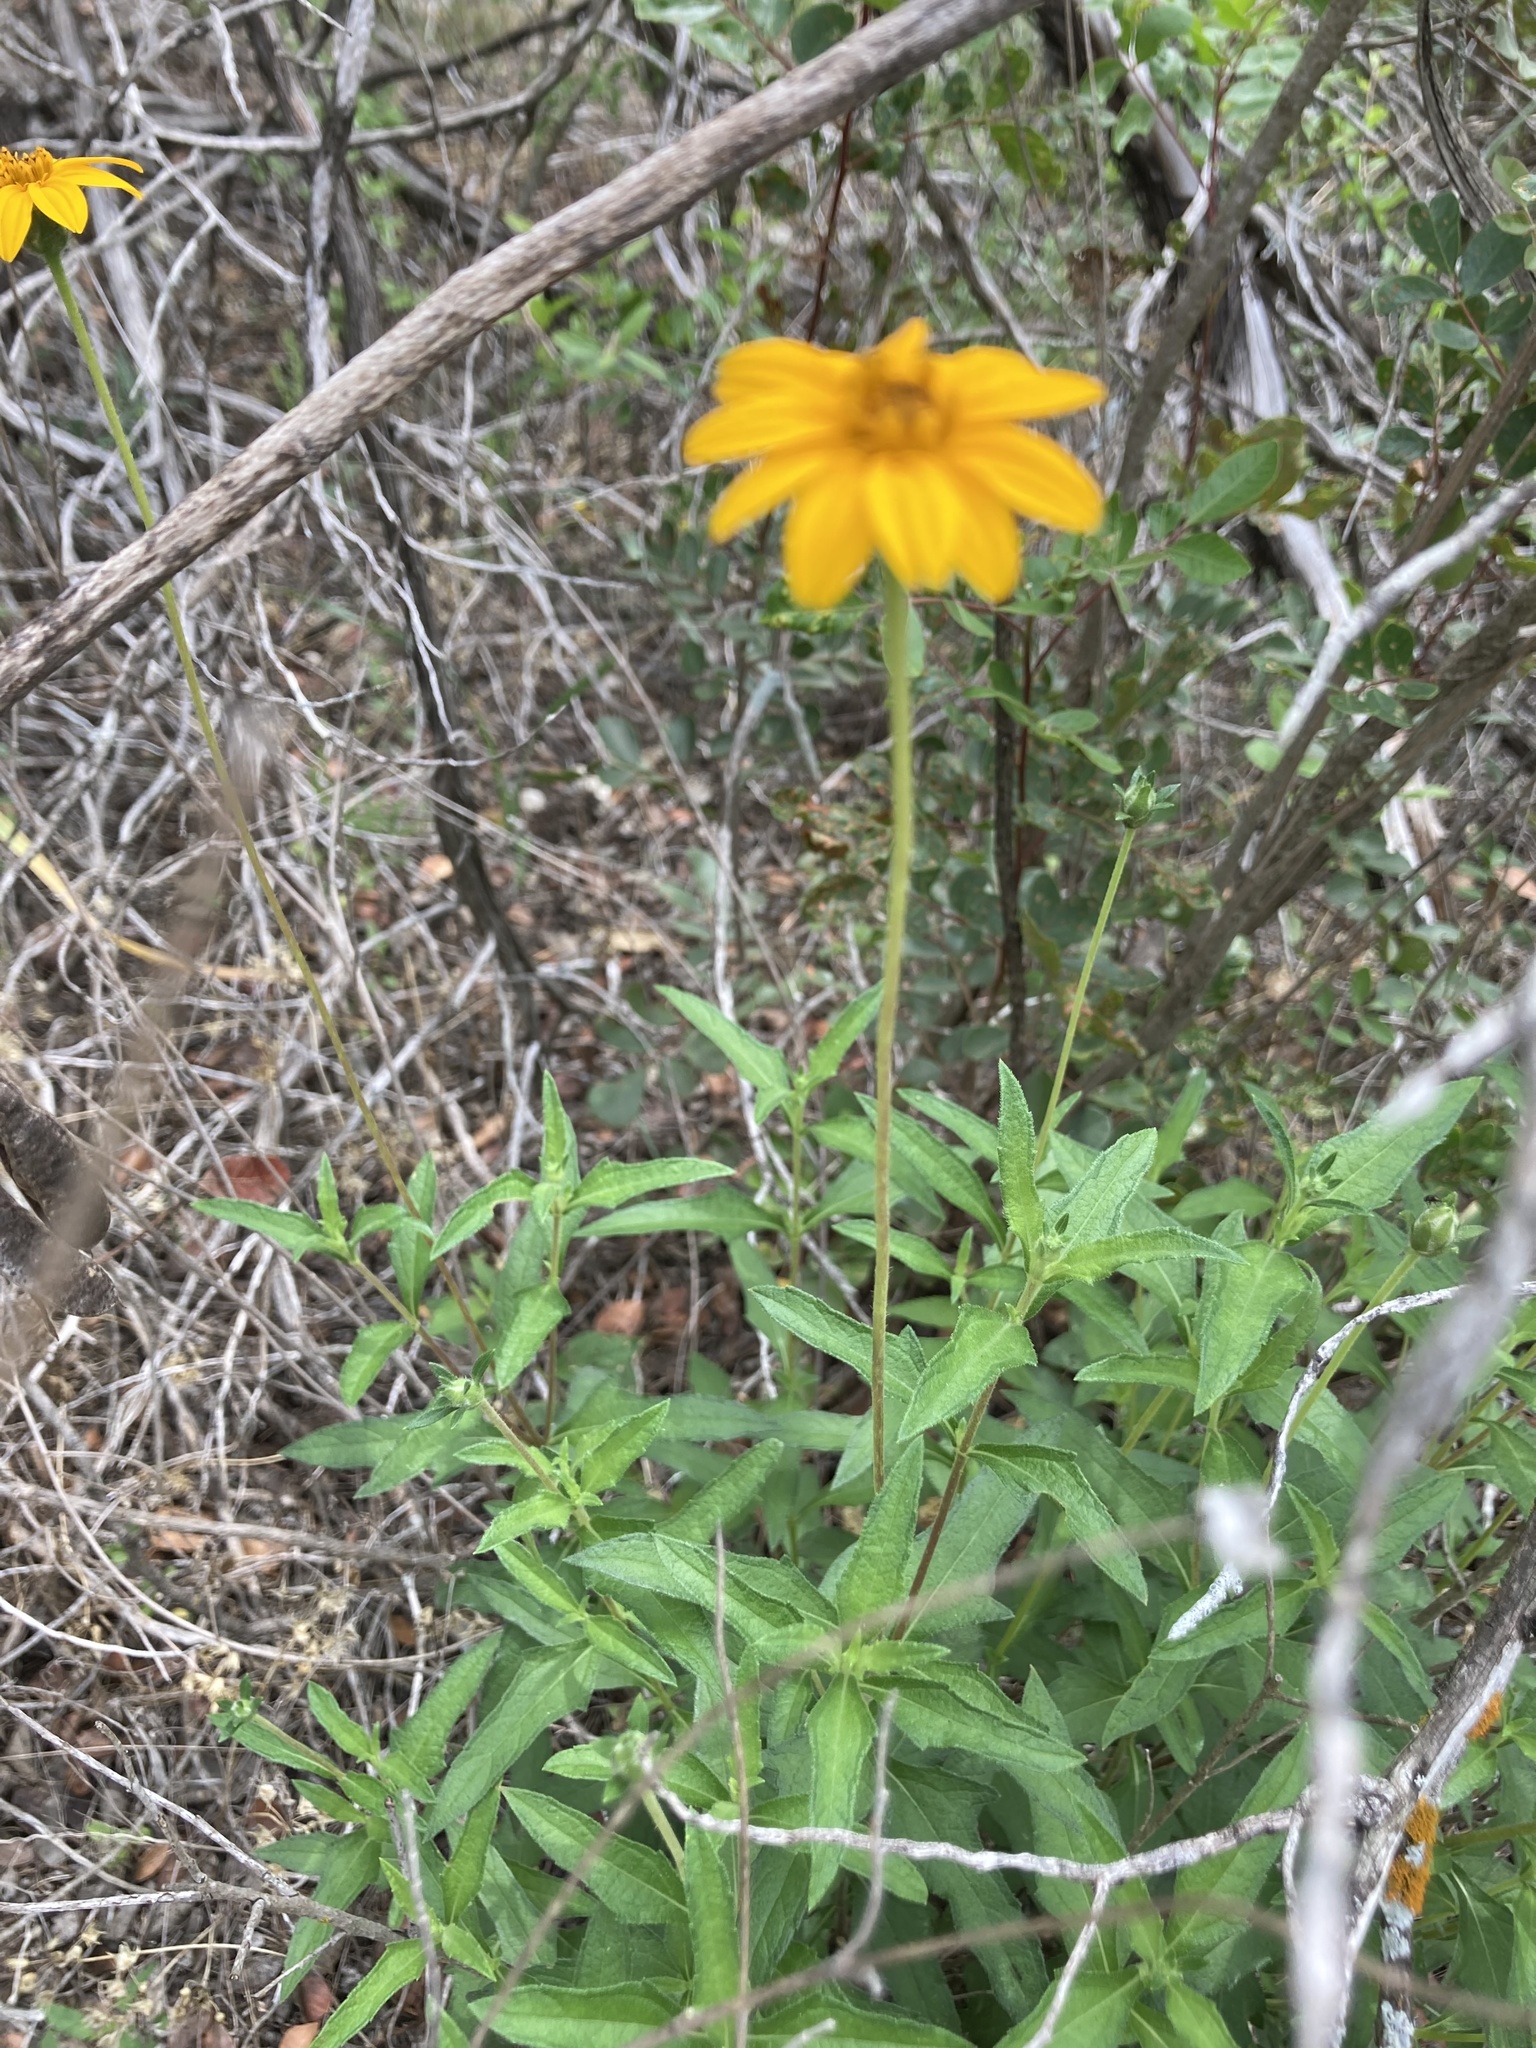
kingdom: Plantae
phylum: Tracheophyta
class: Magnoliopsida
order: Asterales
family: Asteraceae
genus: Wedelia
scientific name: Wedelia acapulcensis
